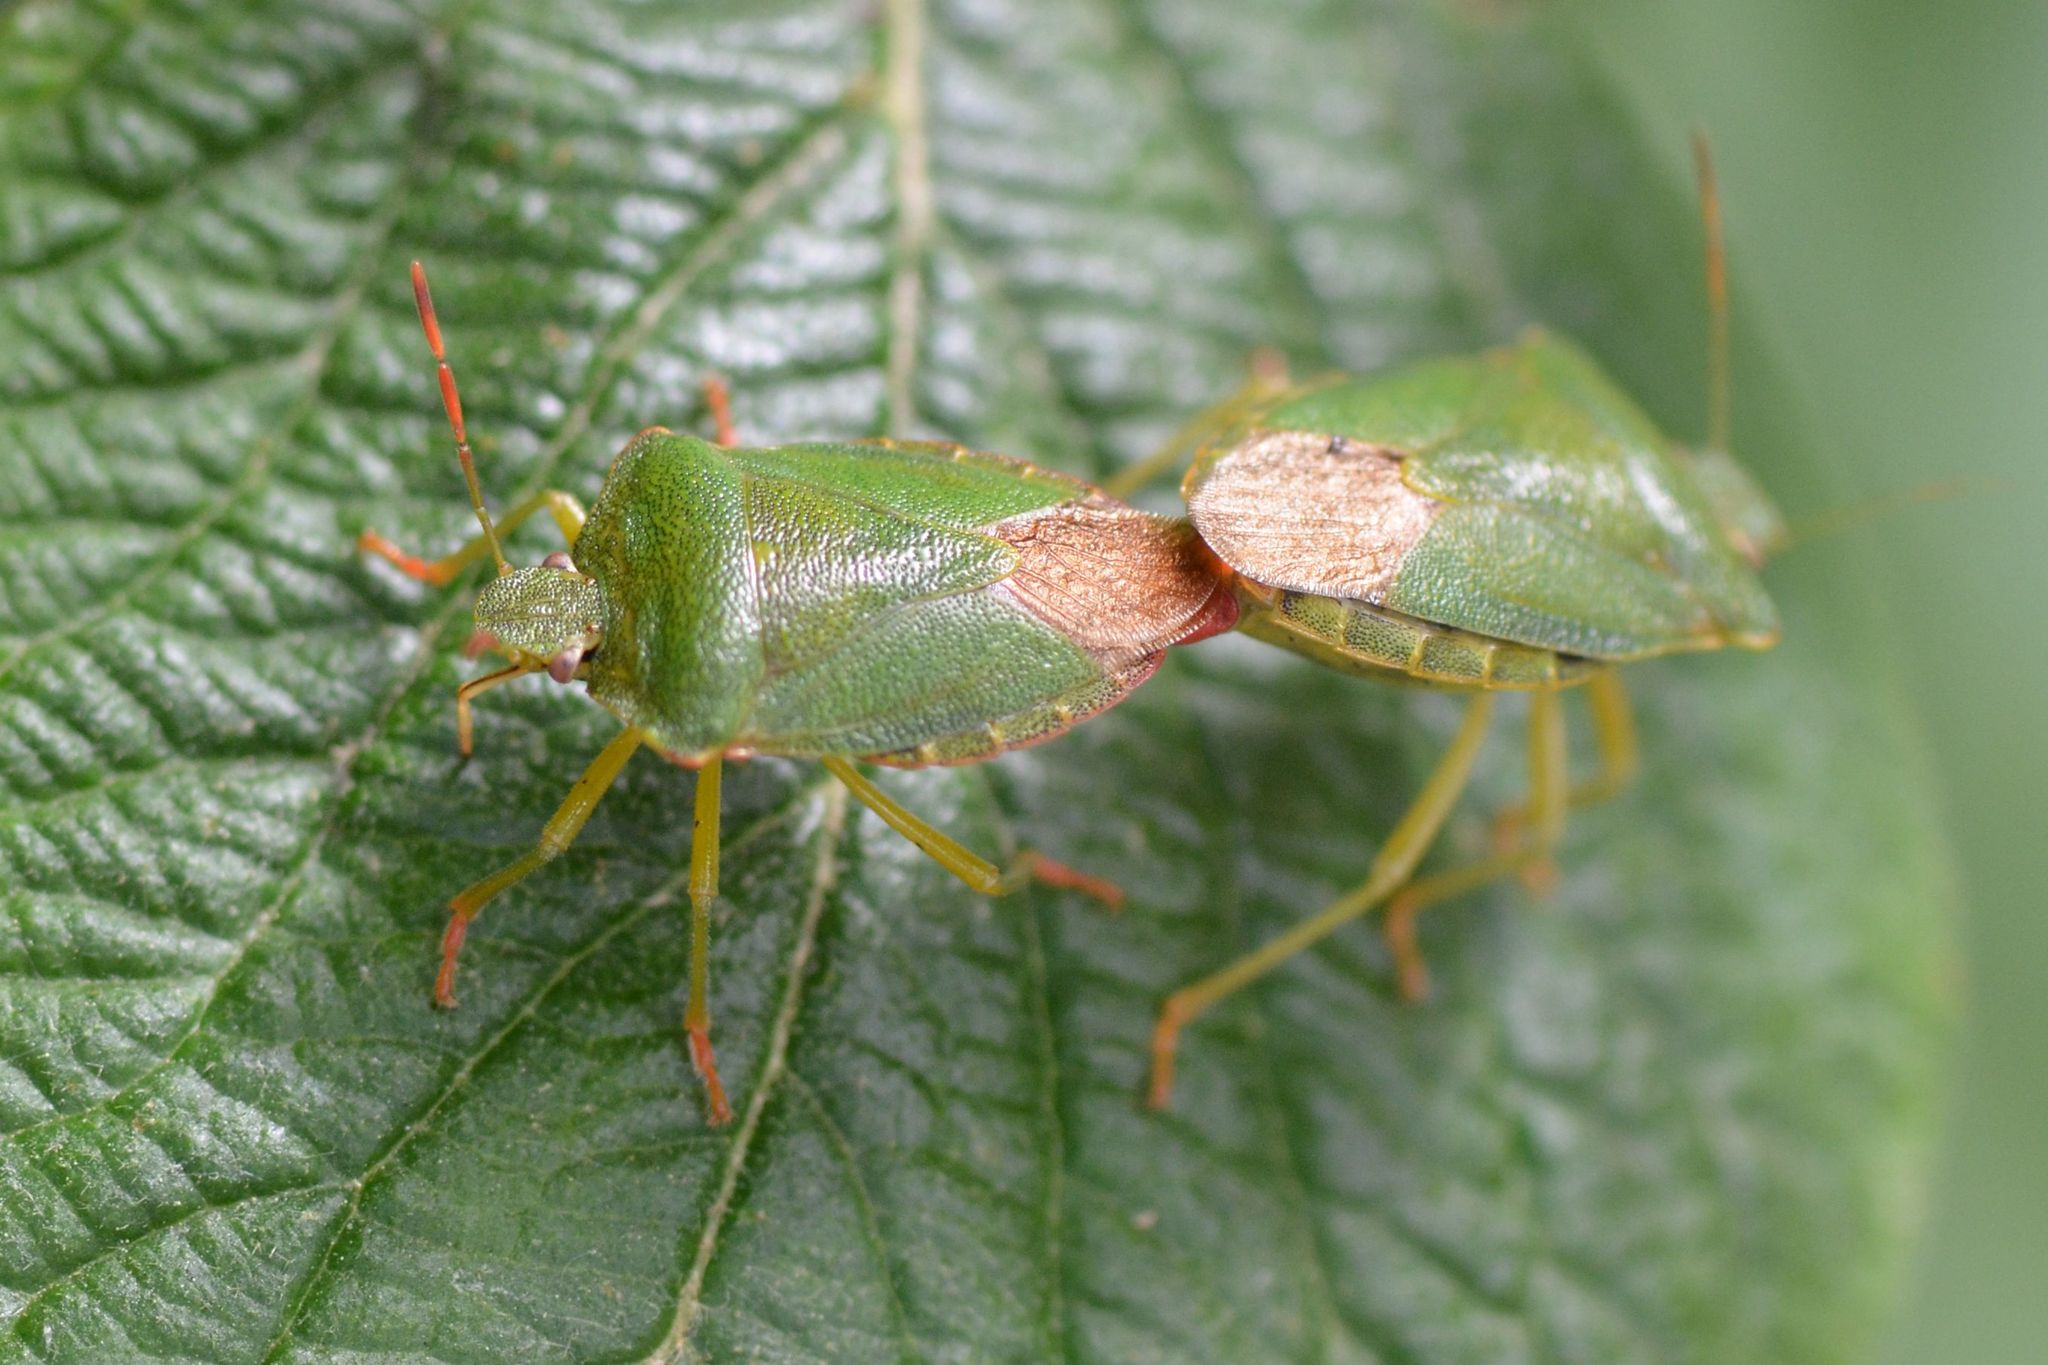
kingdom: Animalia
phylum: Arthropoda
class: Insecta
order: Hemiptera
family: Pentatomidae
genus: Palomena
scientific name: Palomena prasina
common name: Green shieldbug
